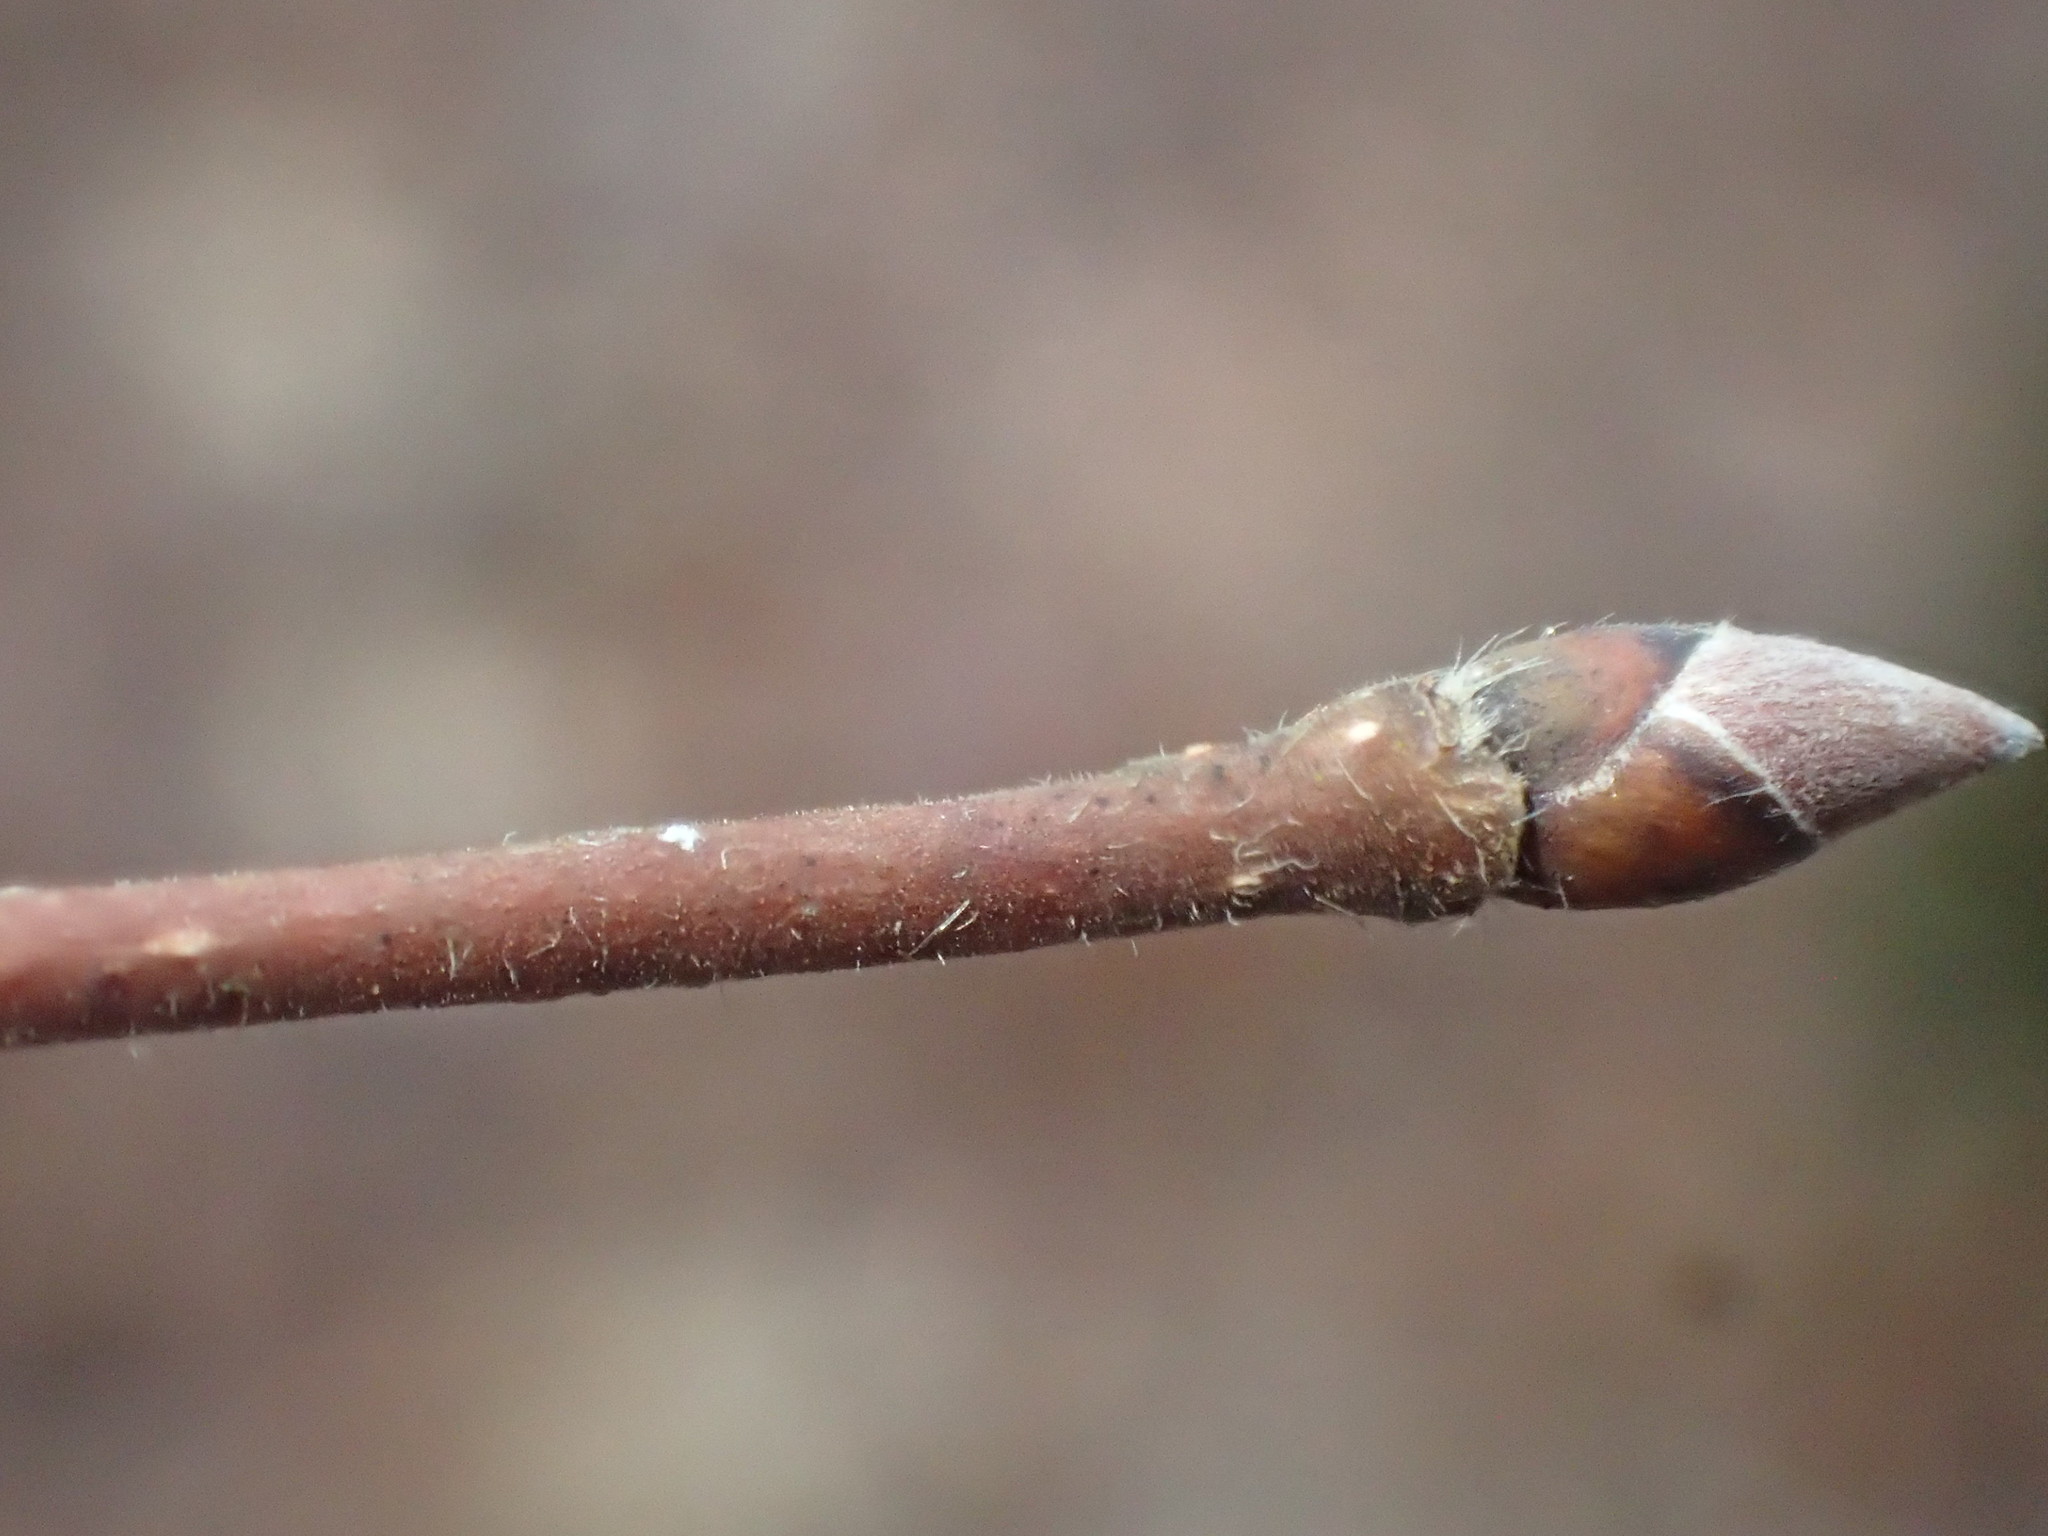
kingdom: Plantae
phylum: Tracheophyta
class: Magnoliopsida
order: Fagales
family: Betulaceae
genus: Corylus
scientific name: Corylus cornuta
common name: Beaked hazel
